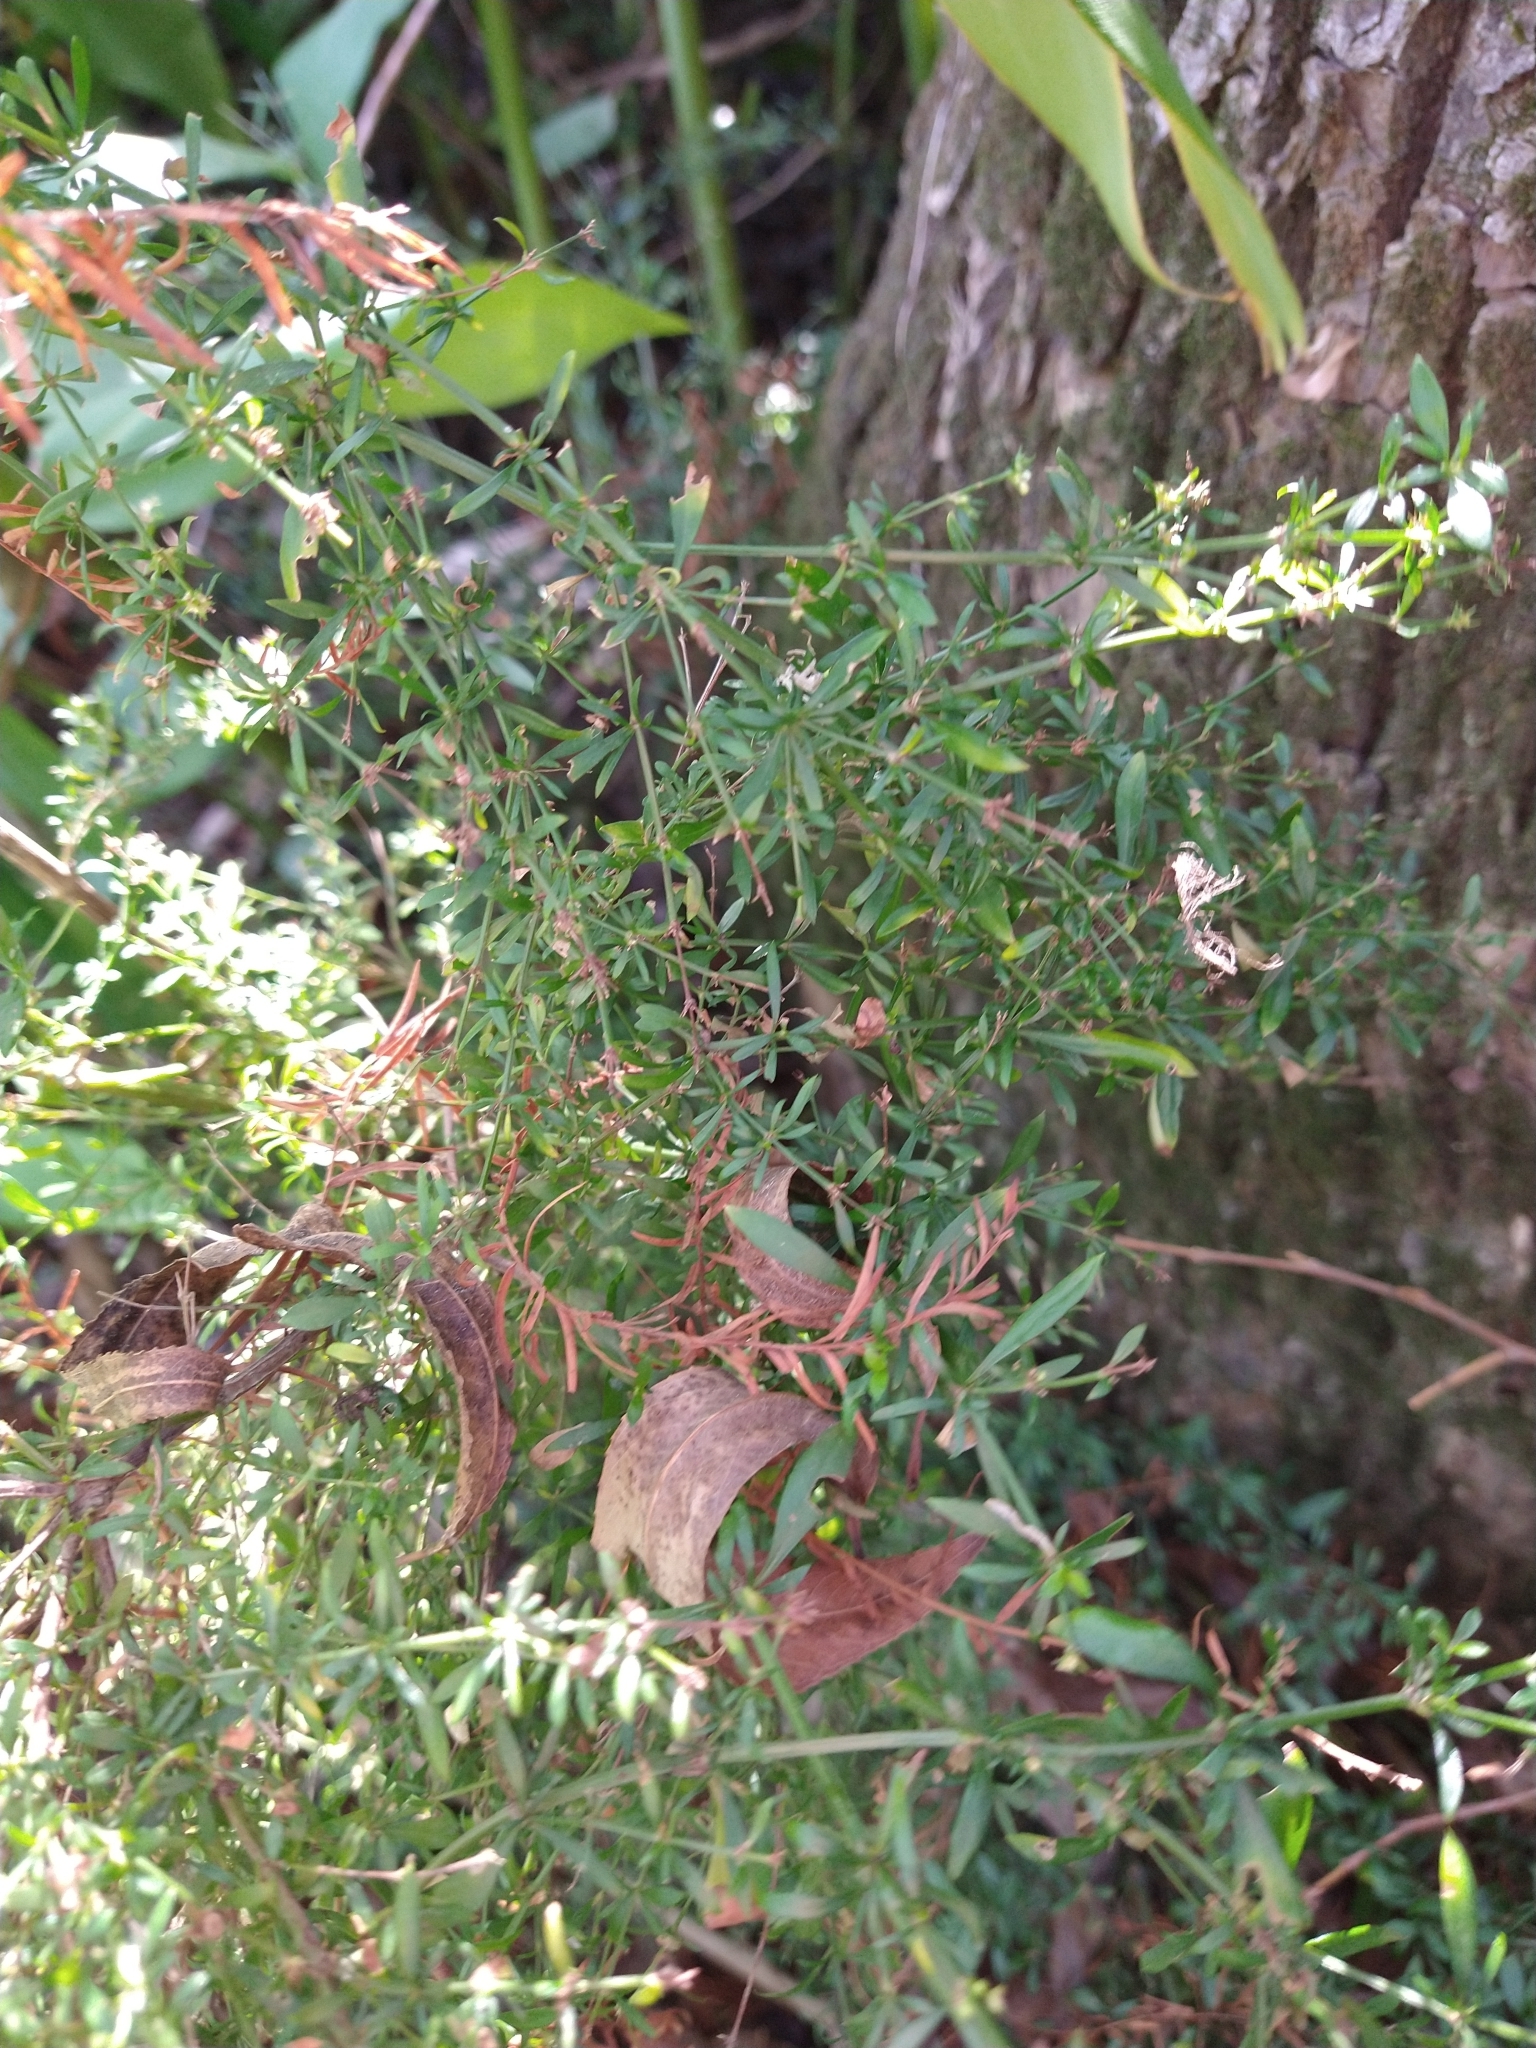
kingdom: Plantae
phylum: Tracheophyta
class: Magnoliopsida
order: Gentianales
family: Rubiaceae
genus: Galianthe
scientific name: Galianthe brasiliensis
